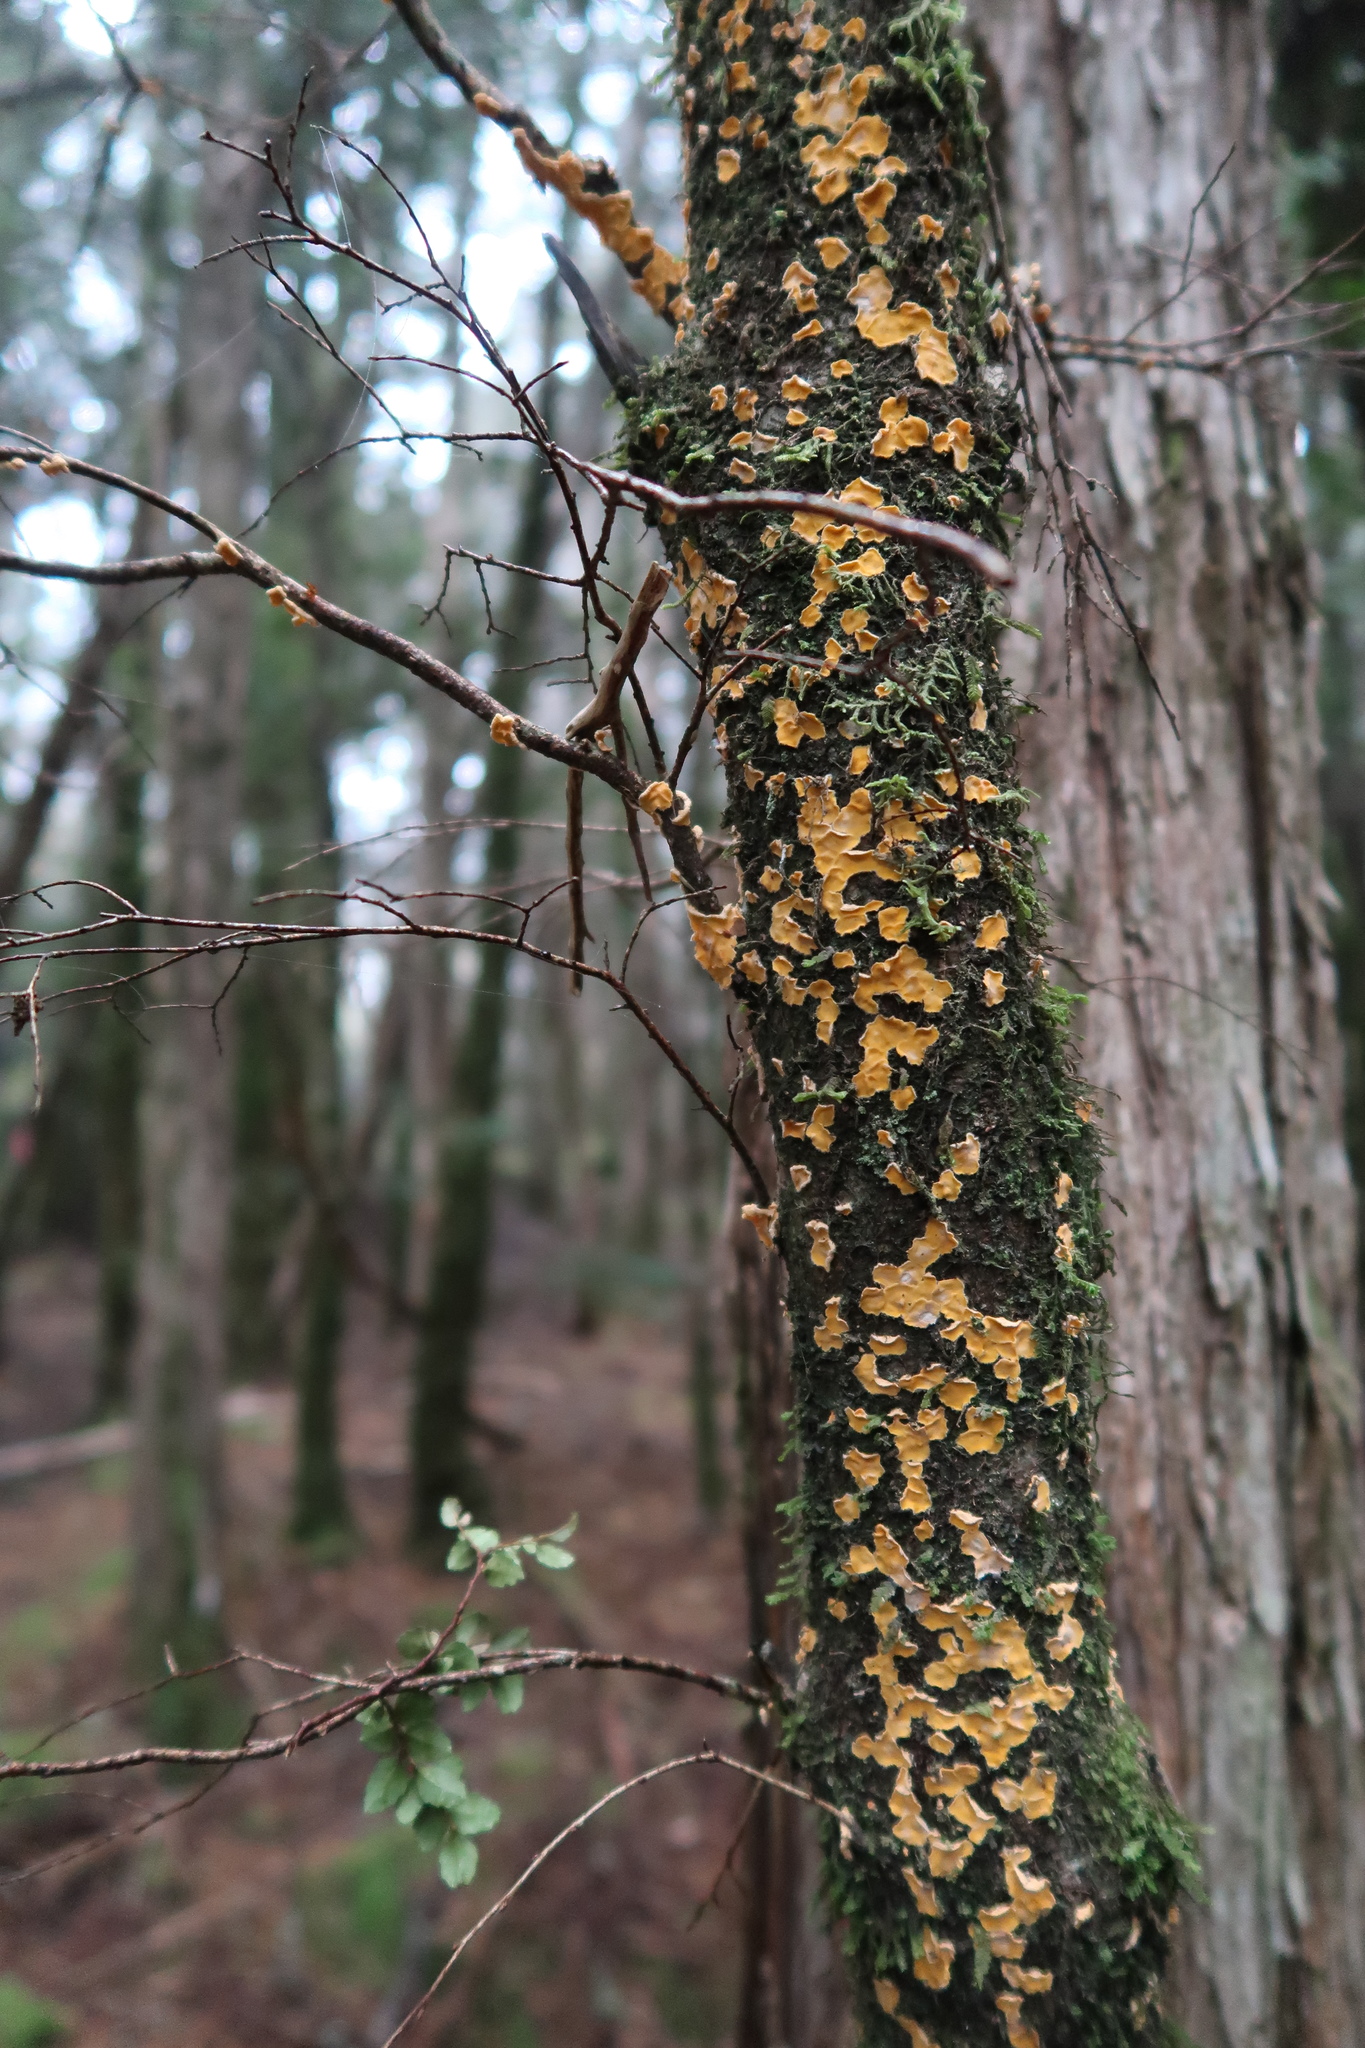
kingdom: Fungi
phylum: Basidiomycota
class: Agaricomycetes
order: Russulales
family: Stereaceae
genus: Stereodiscus
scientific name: Stereodiscus limonisporus
